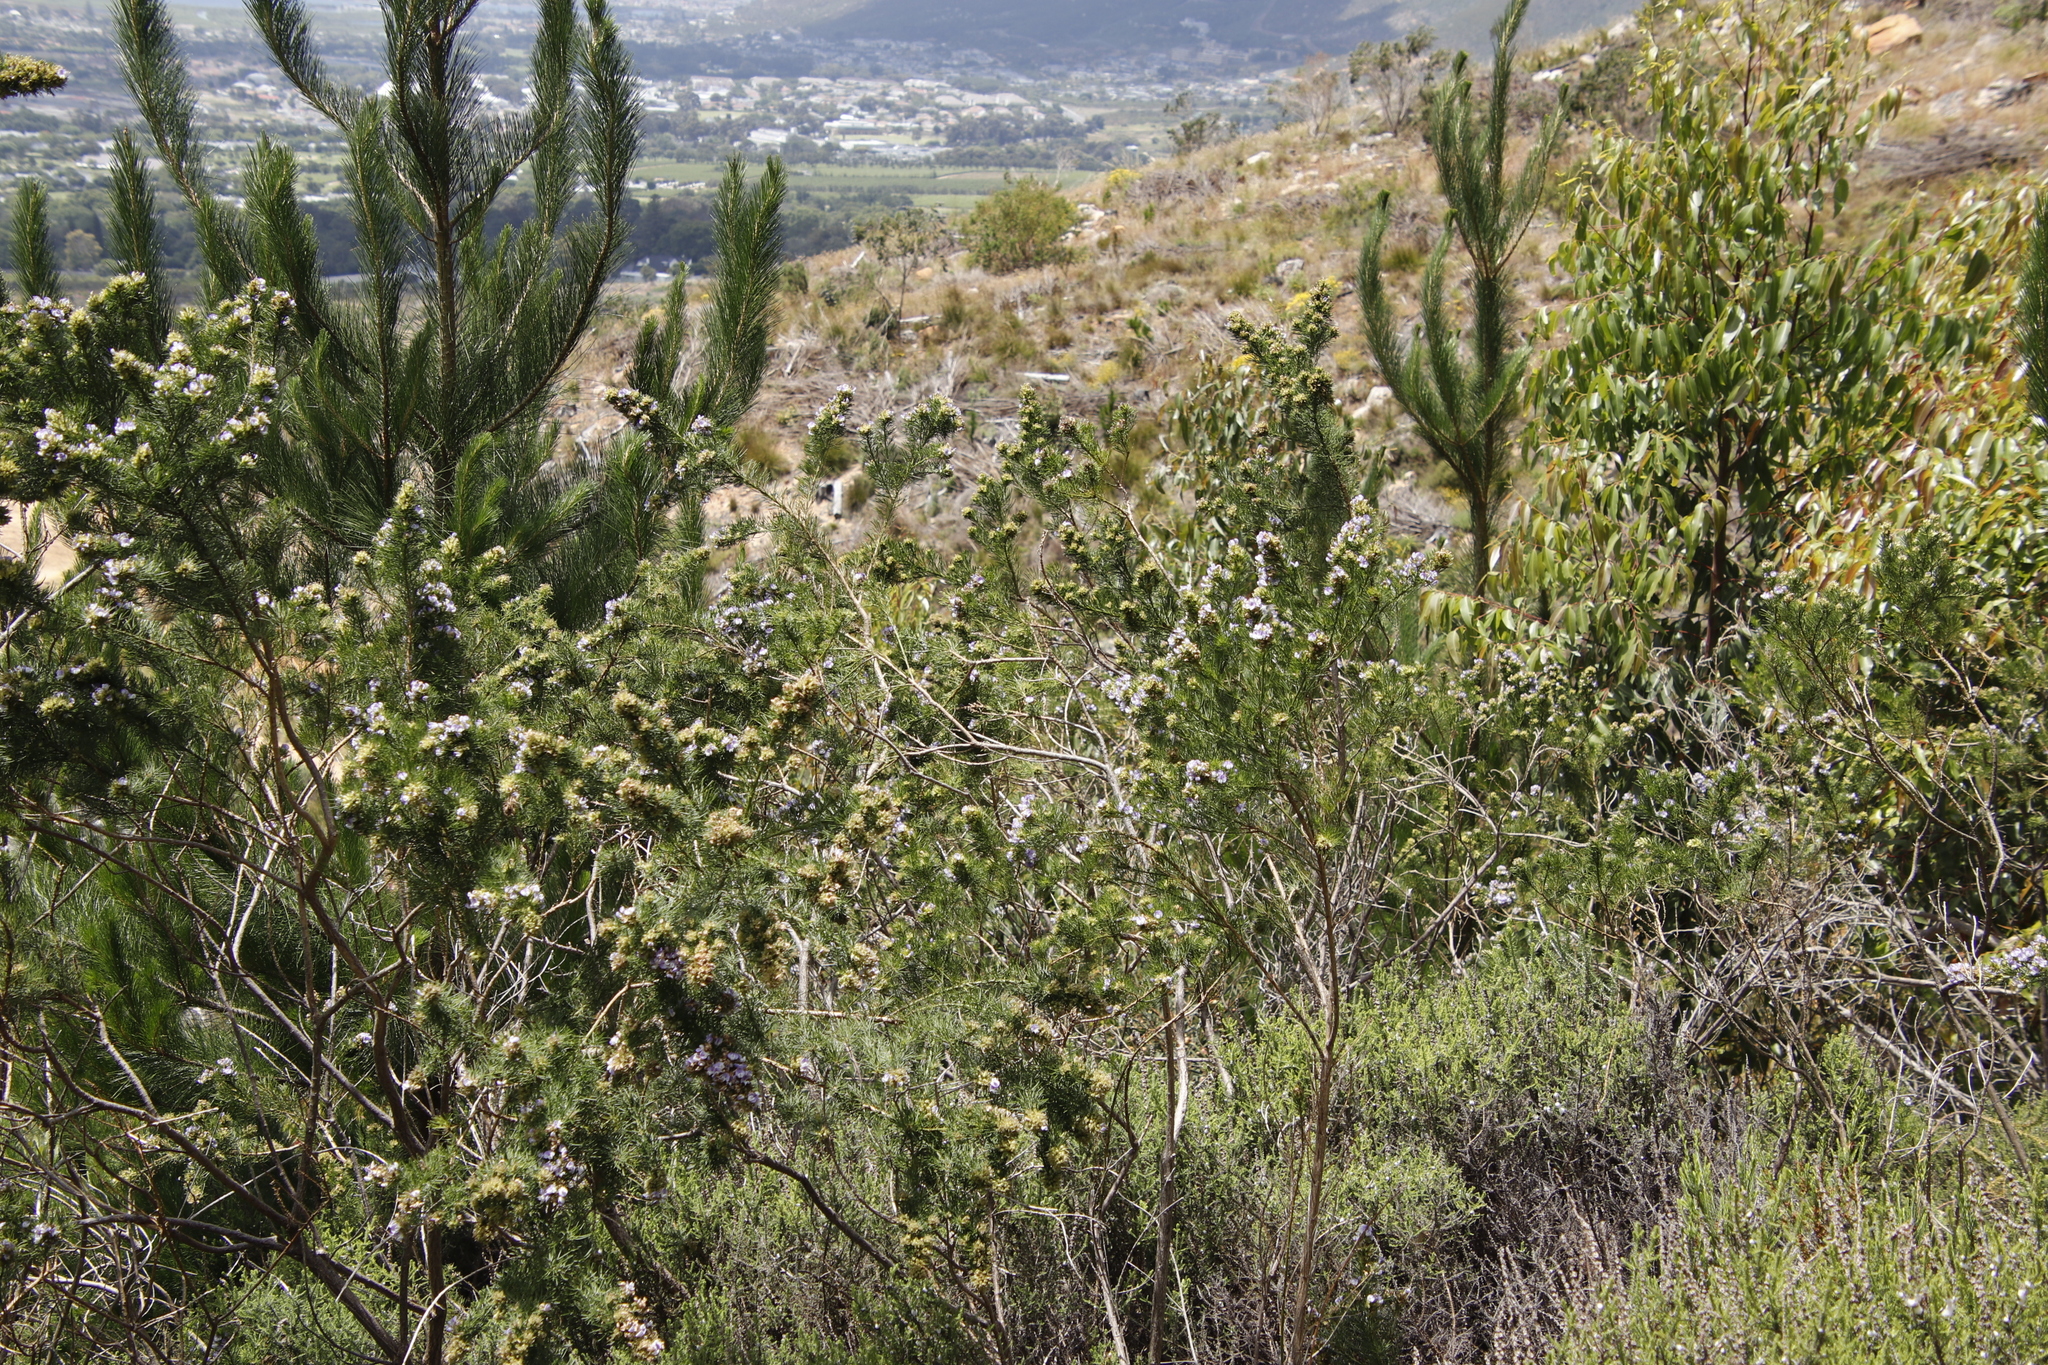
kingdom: Plantae
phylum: Tracheophyta
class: Magnoliopsida
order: Fabales
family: Fabaceae
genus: Psoralea
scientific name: Psoralea pinnata
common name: African scurfpea
